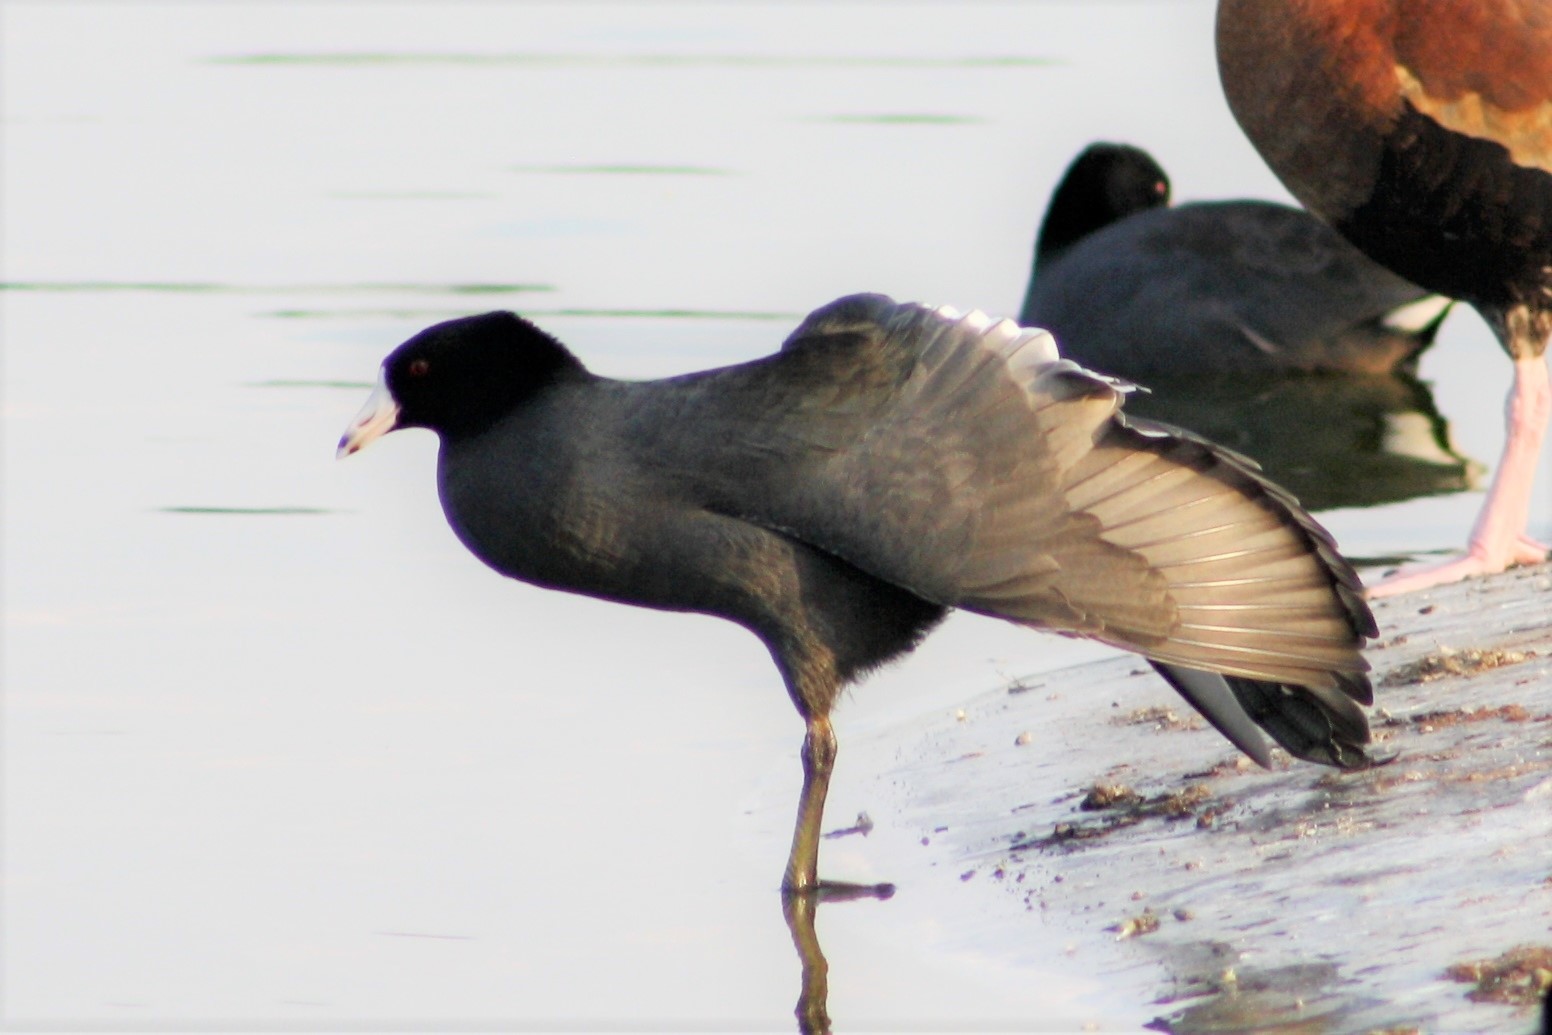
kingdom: Animalia
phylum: Chordata
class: Aves
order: Gruiformes
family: Rallidae
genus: Fulica
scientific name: Fulica americana
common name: American coot
